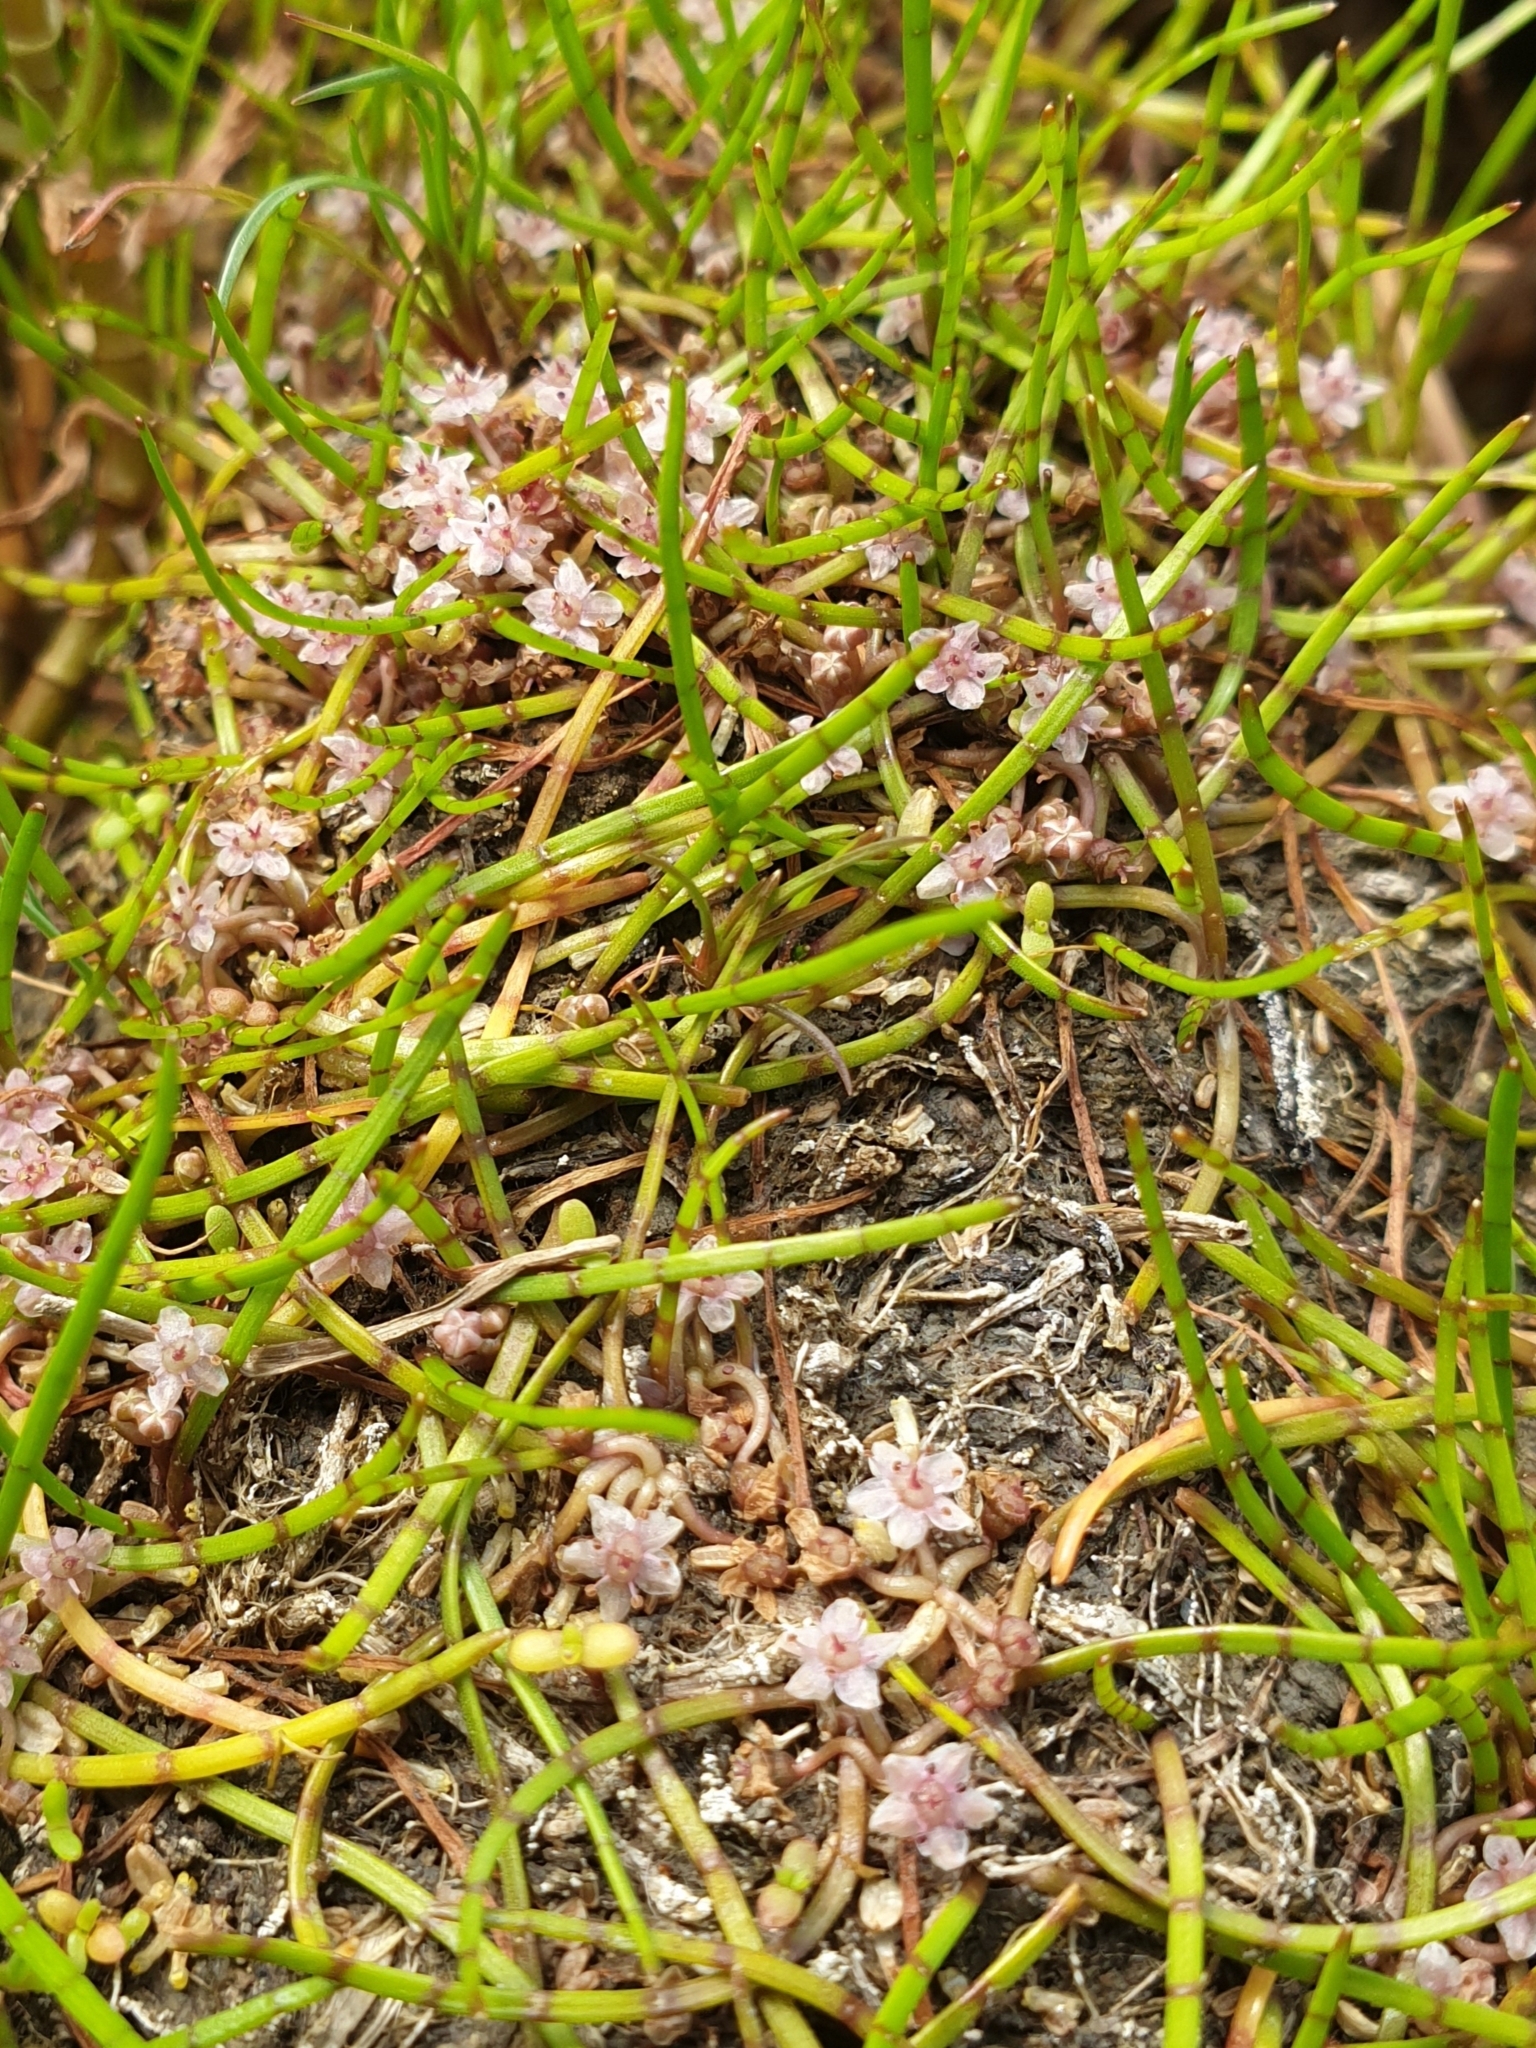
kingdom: Plantae
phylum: Tracheophyta
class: Magnoliopsida
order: Apiales
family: Apiaceae
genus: Lilaeopsis
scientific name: Lilaeopsis novae-zelandiae
